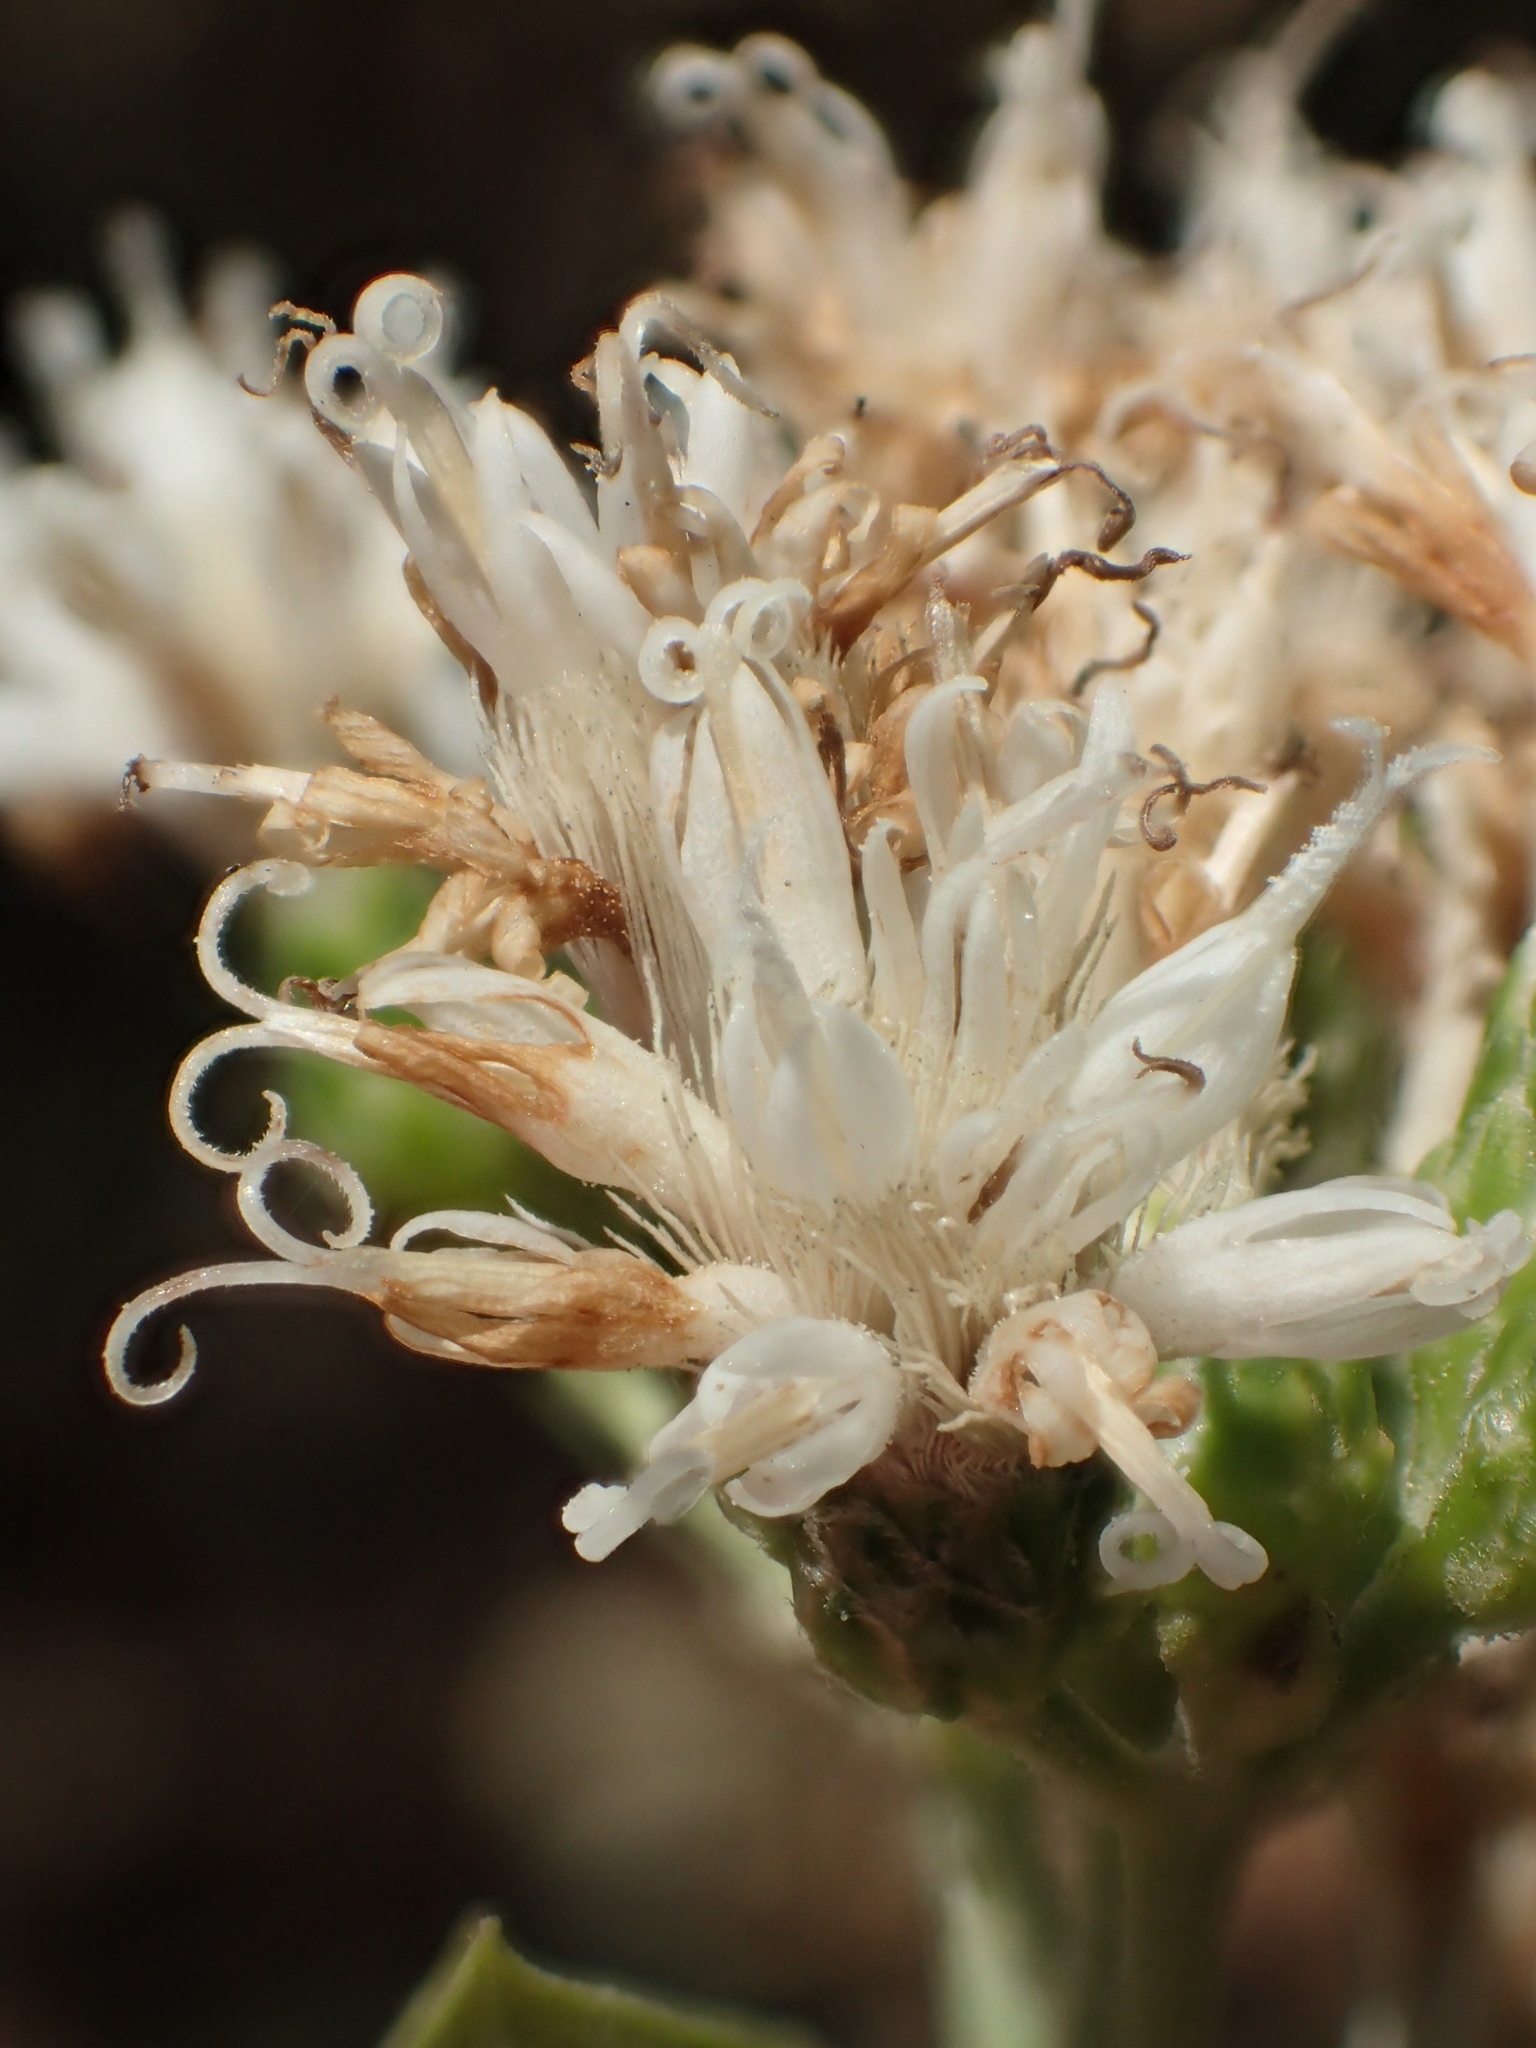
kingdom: Plantae
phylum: Tracheophyta
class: Magnoliopsida
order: Asterales
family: Asteraceae
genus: Gymnanthemum
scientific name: Gymnanthemum amygdalinum
